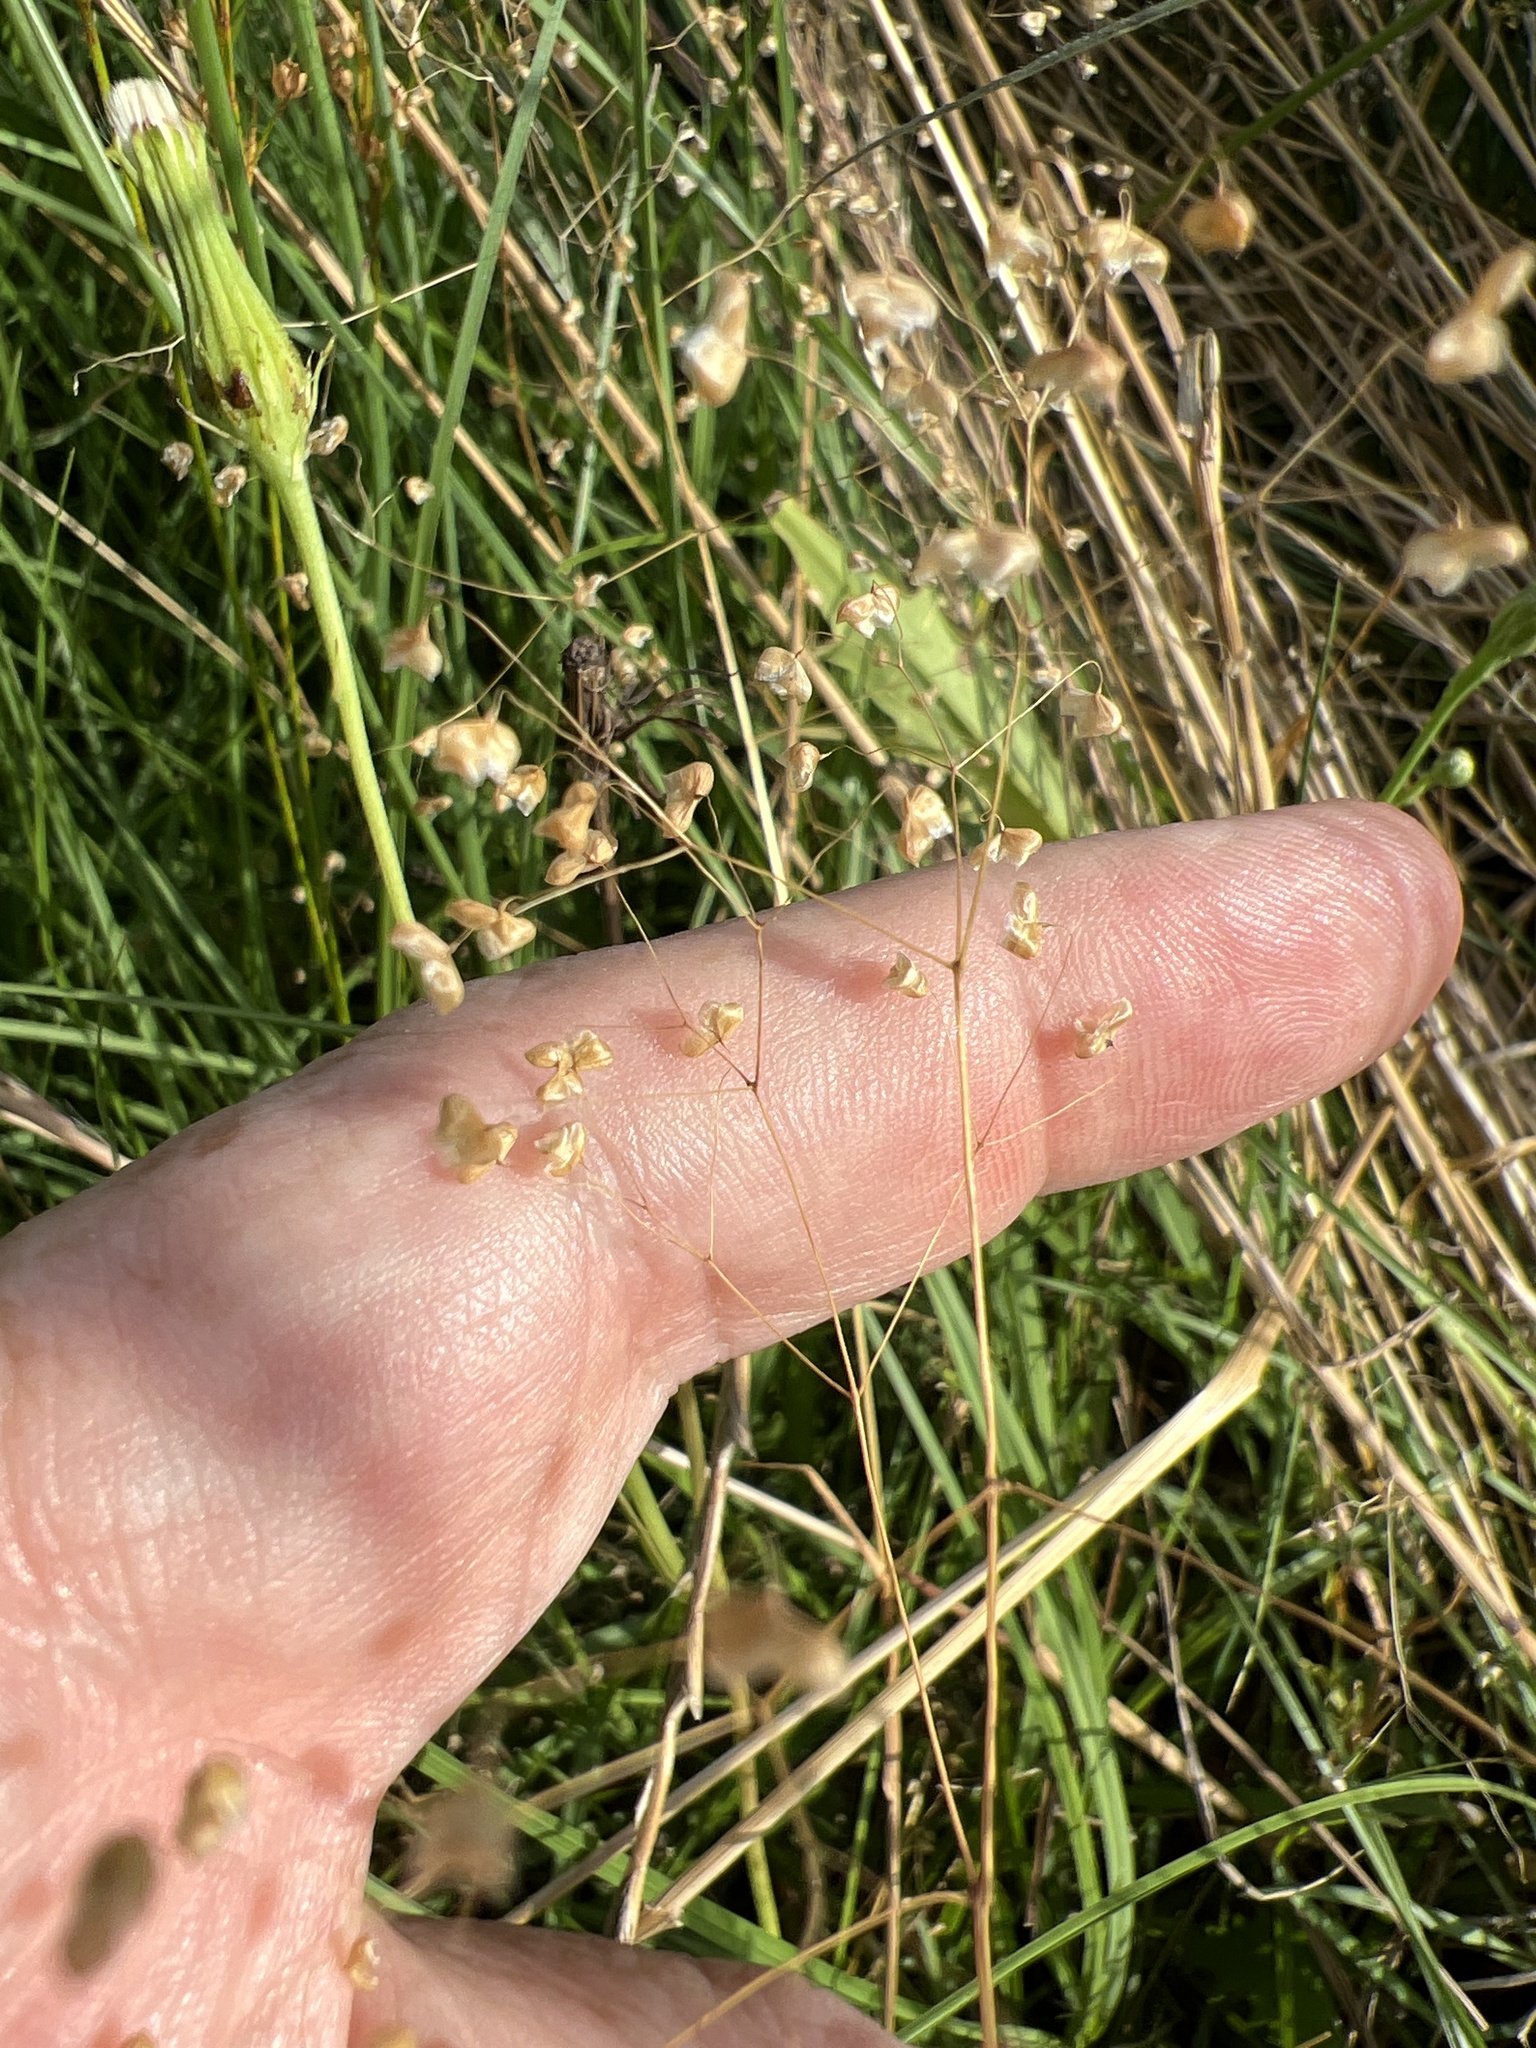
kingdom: Plantae
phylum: Tracheophyta
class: Liliopsida
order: Poales
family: Poaceae
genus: Briza
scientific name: Briza minor
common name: Lesser quaking-grass
